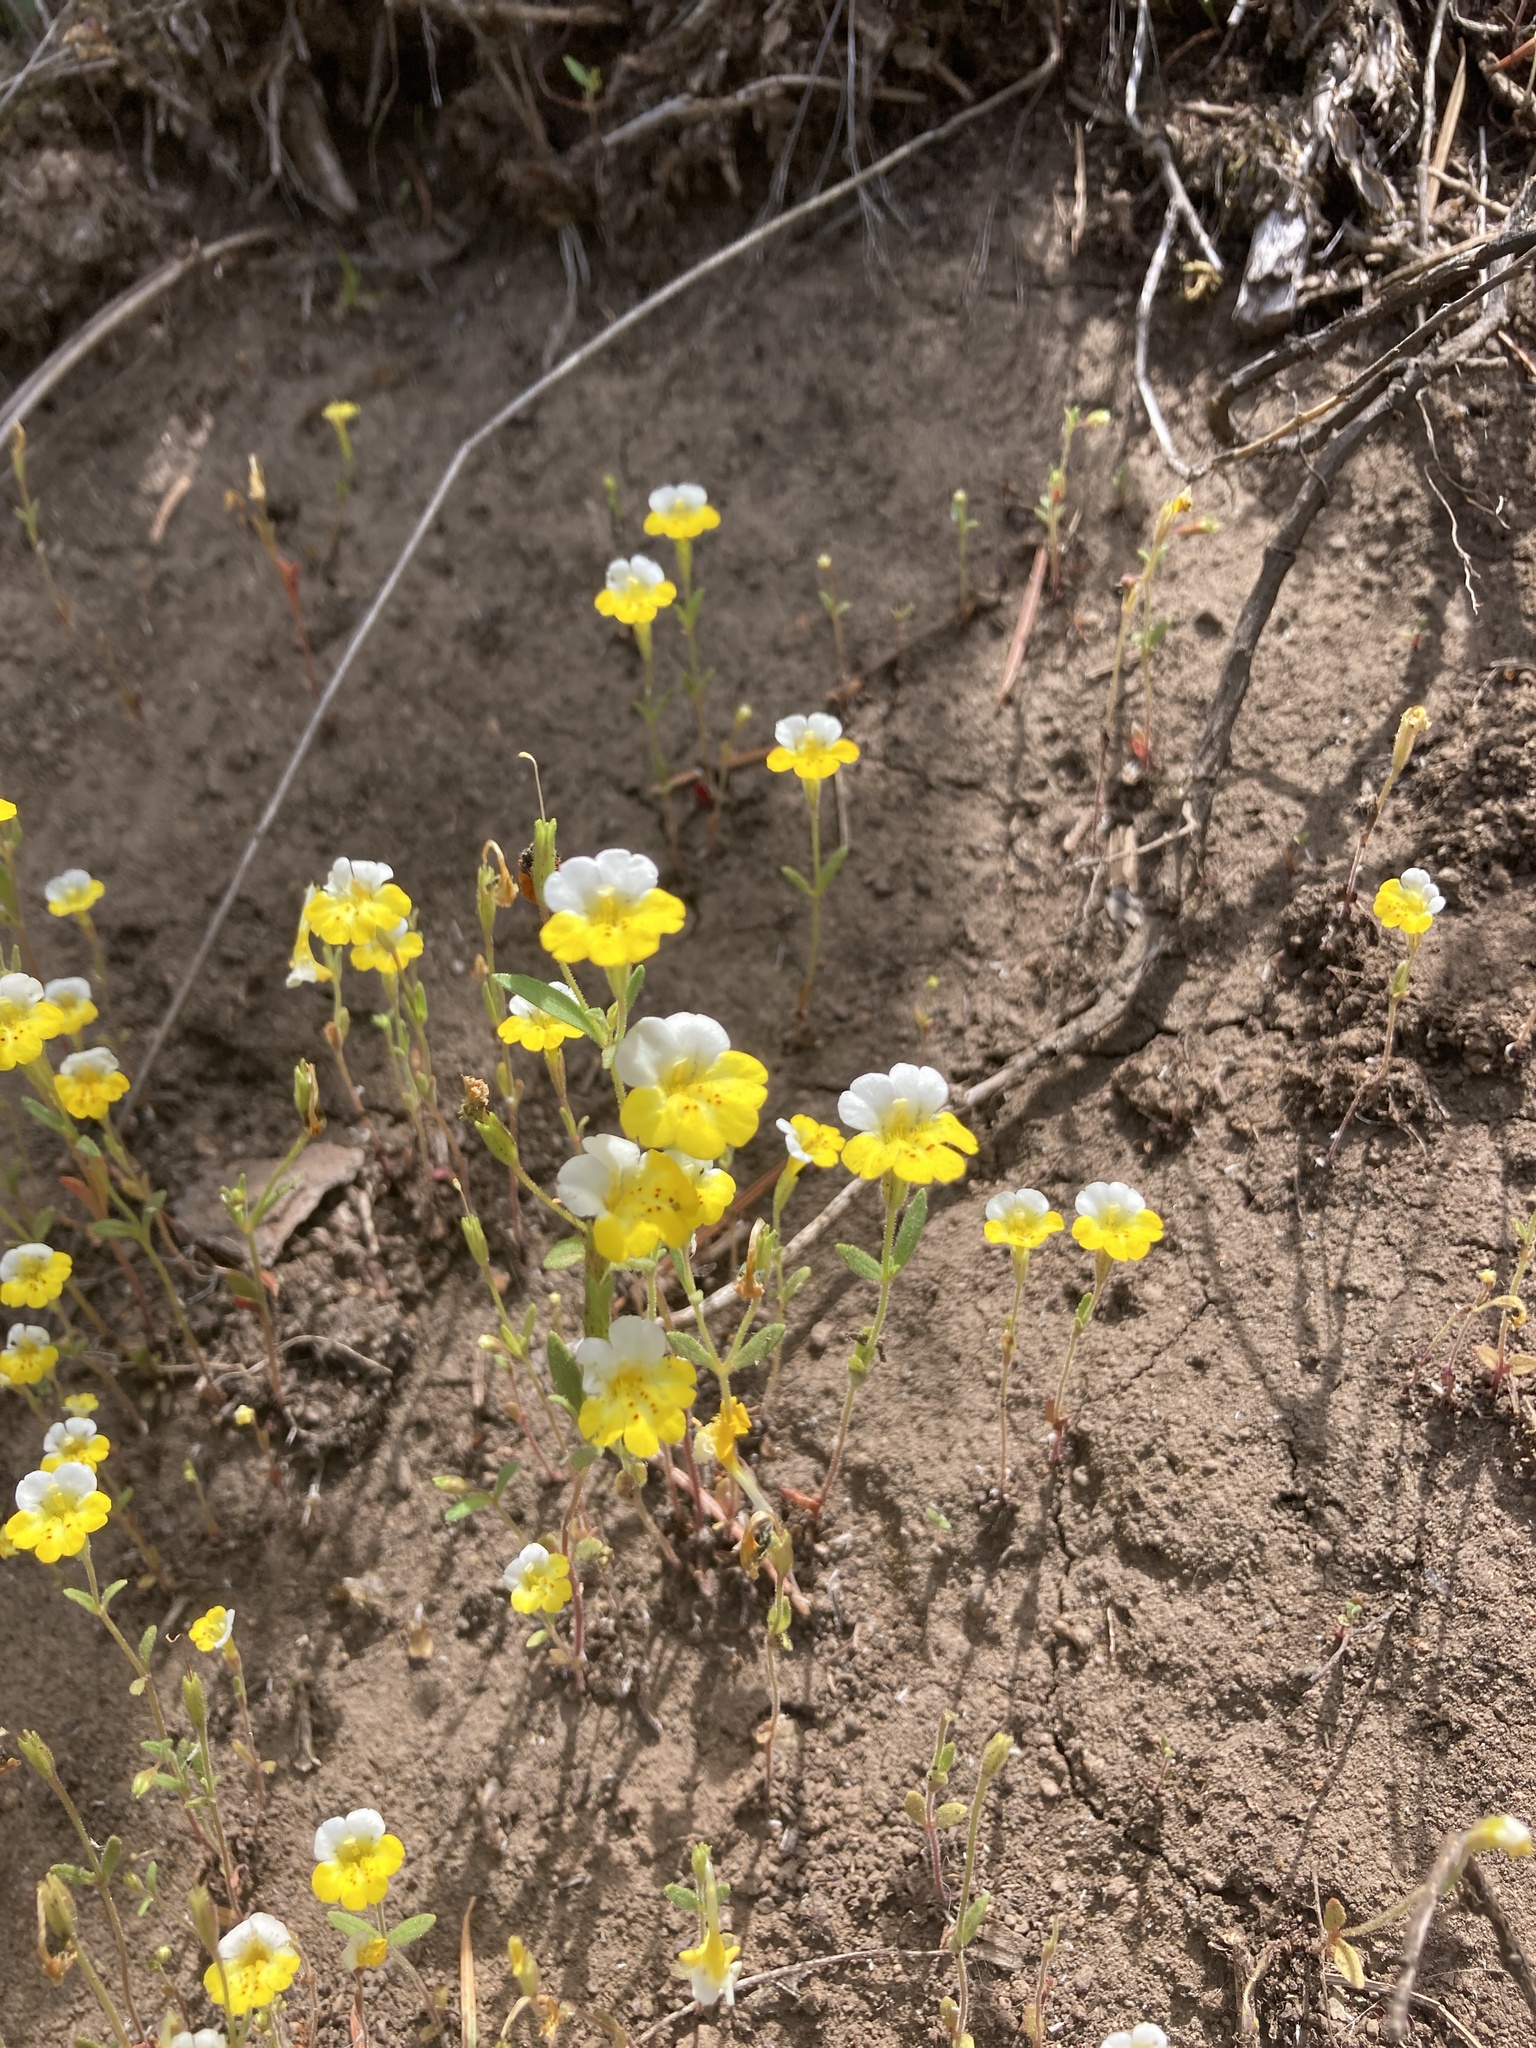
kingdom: Plantae
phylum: Tracheophyta
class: Magnoliopsida
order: Lamiales
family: Phrymaceae
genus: Erythranthe
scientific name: Erythranthe bicolor
